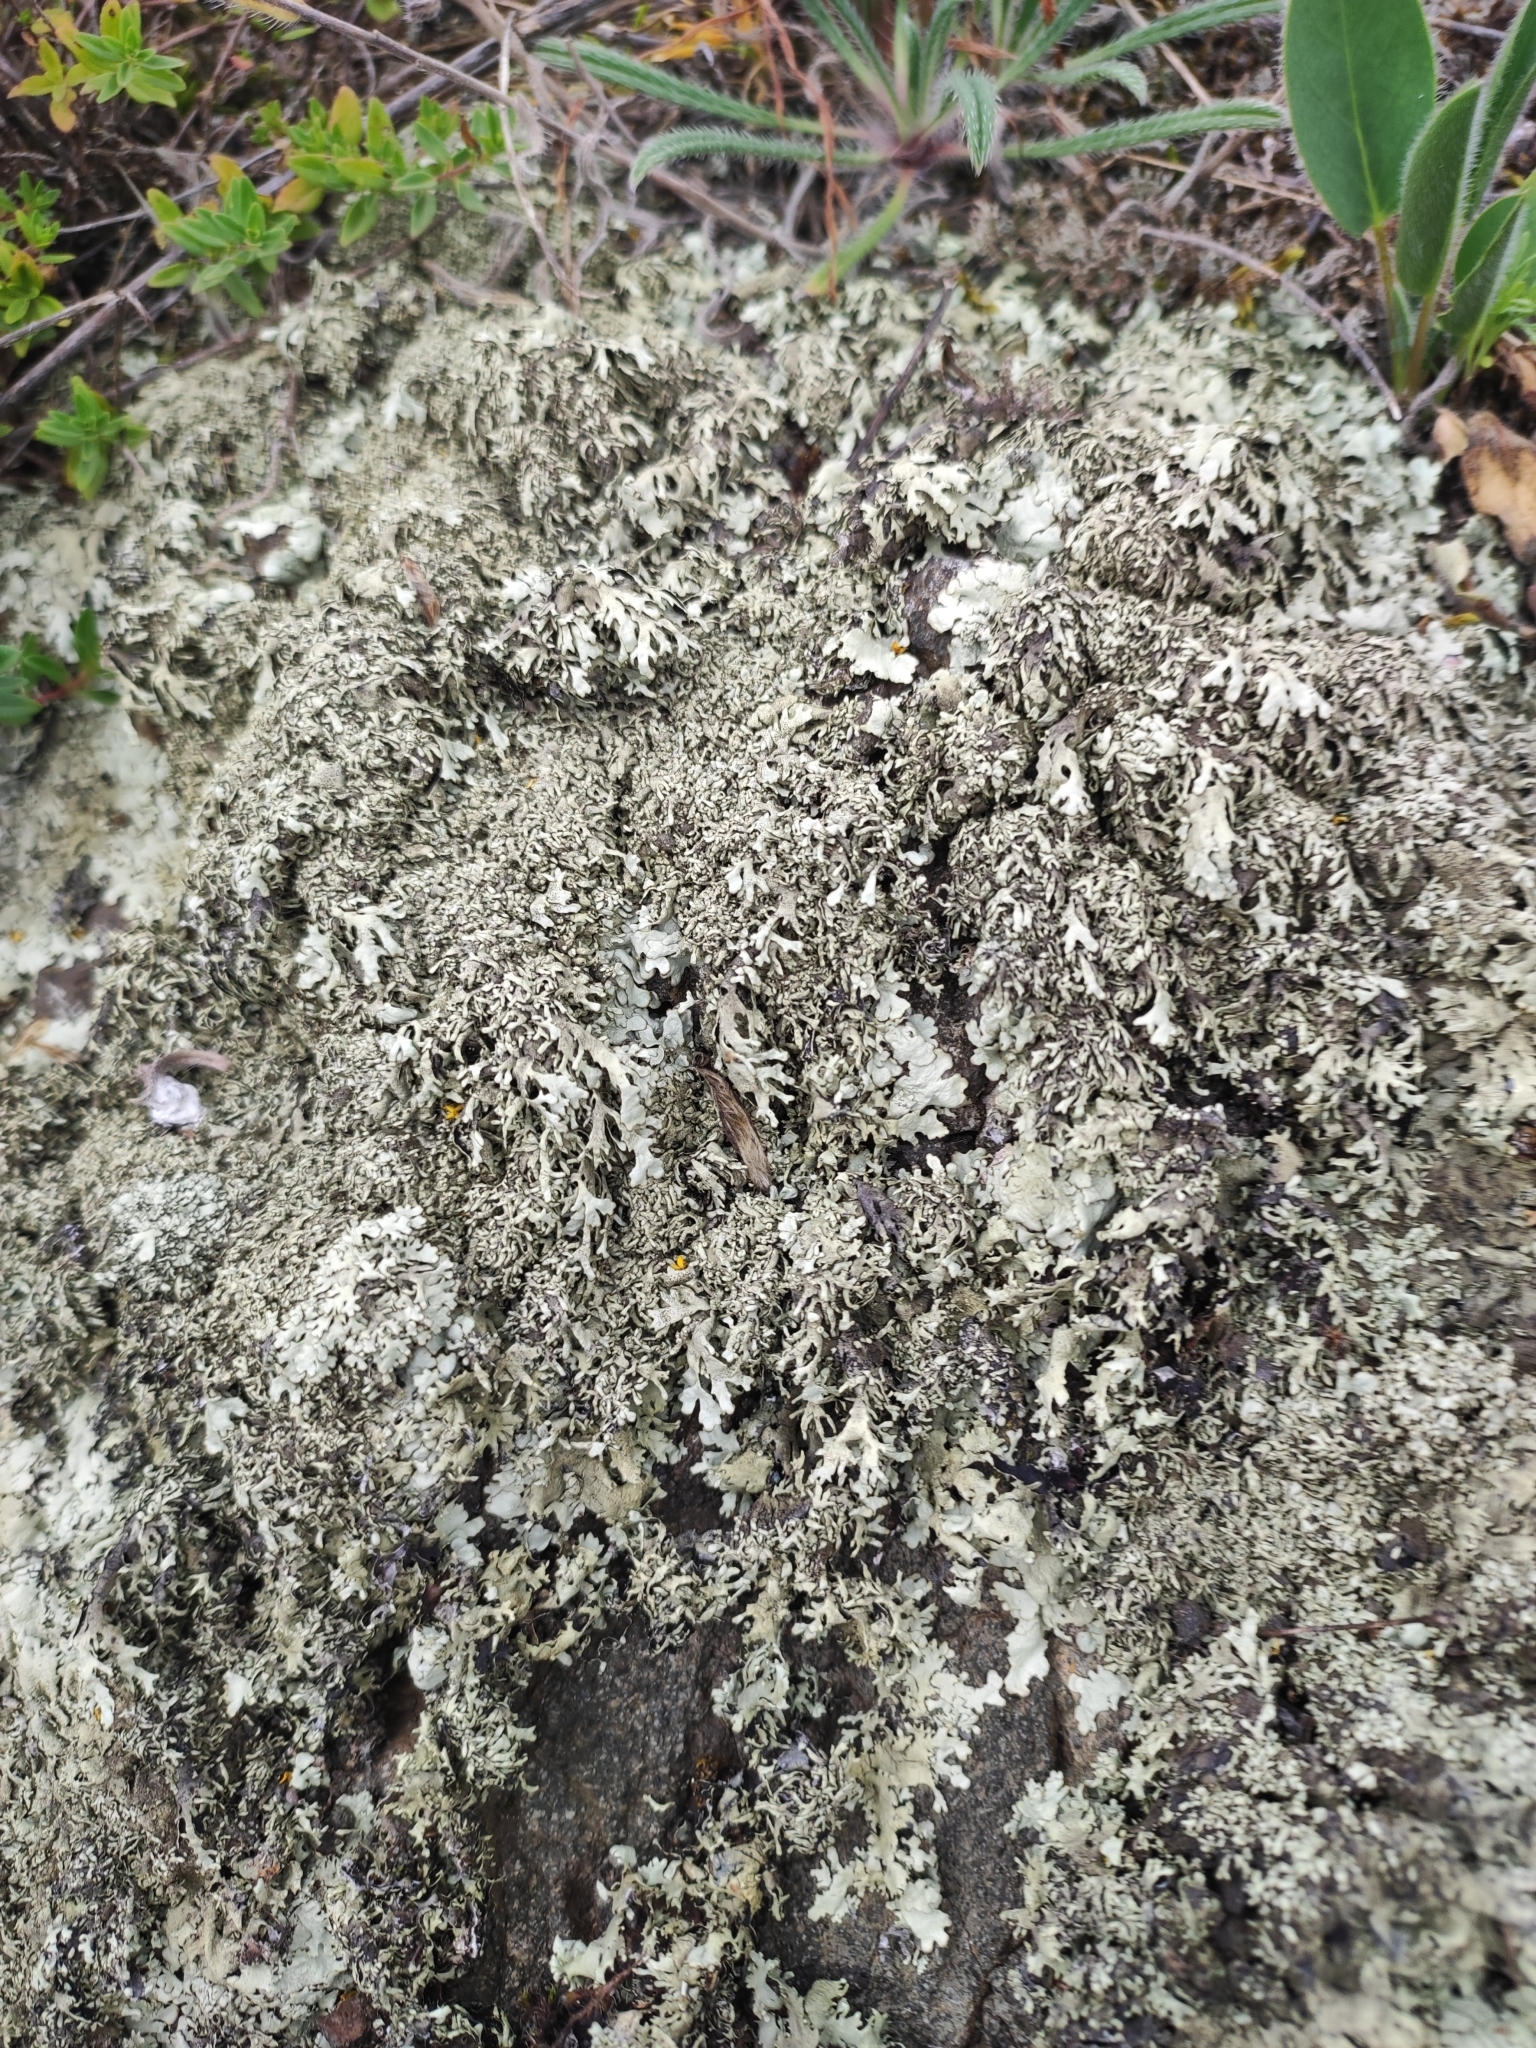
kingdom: Fungi
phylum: Ascomycota
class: Lecanoromycetes
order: Lecanorales
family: Parmeliaceae
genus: Xanthoparmelia
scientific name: Xanthoparmelia stenophylla
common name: Shingled rock shield
